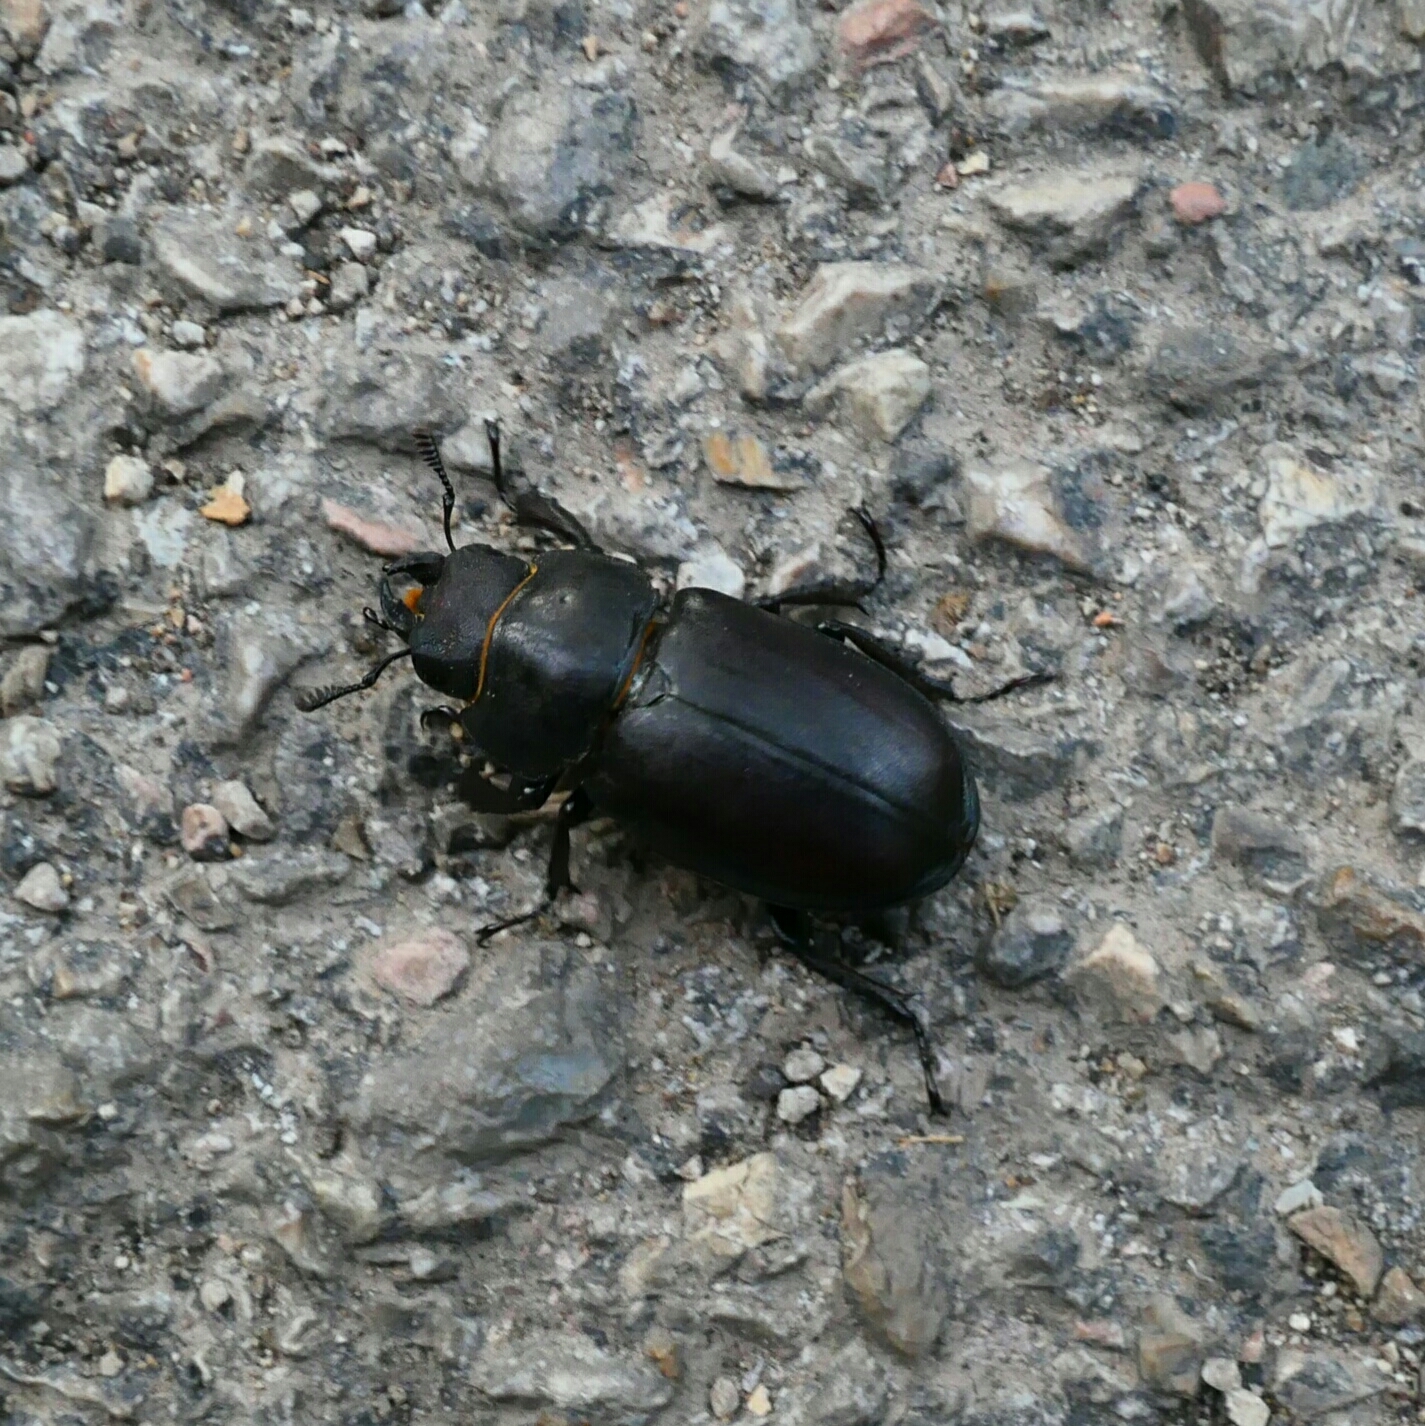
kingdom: Animalia
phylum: Arthropoda
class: Insecta
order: Coleoptera
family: Lucanidae
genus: Lucanus
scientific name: Lucanus tetraodon
